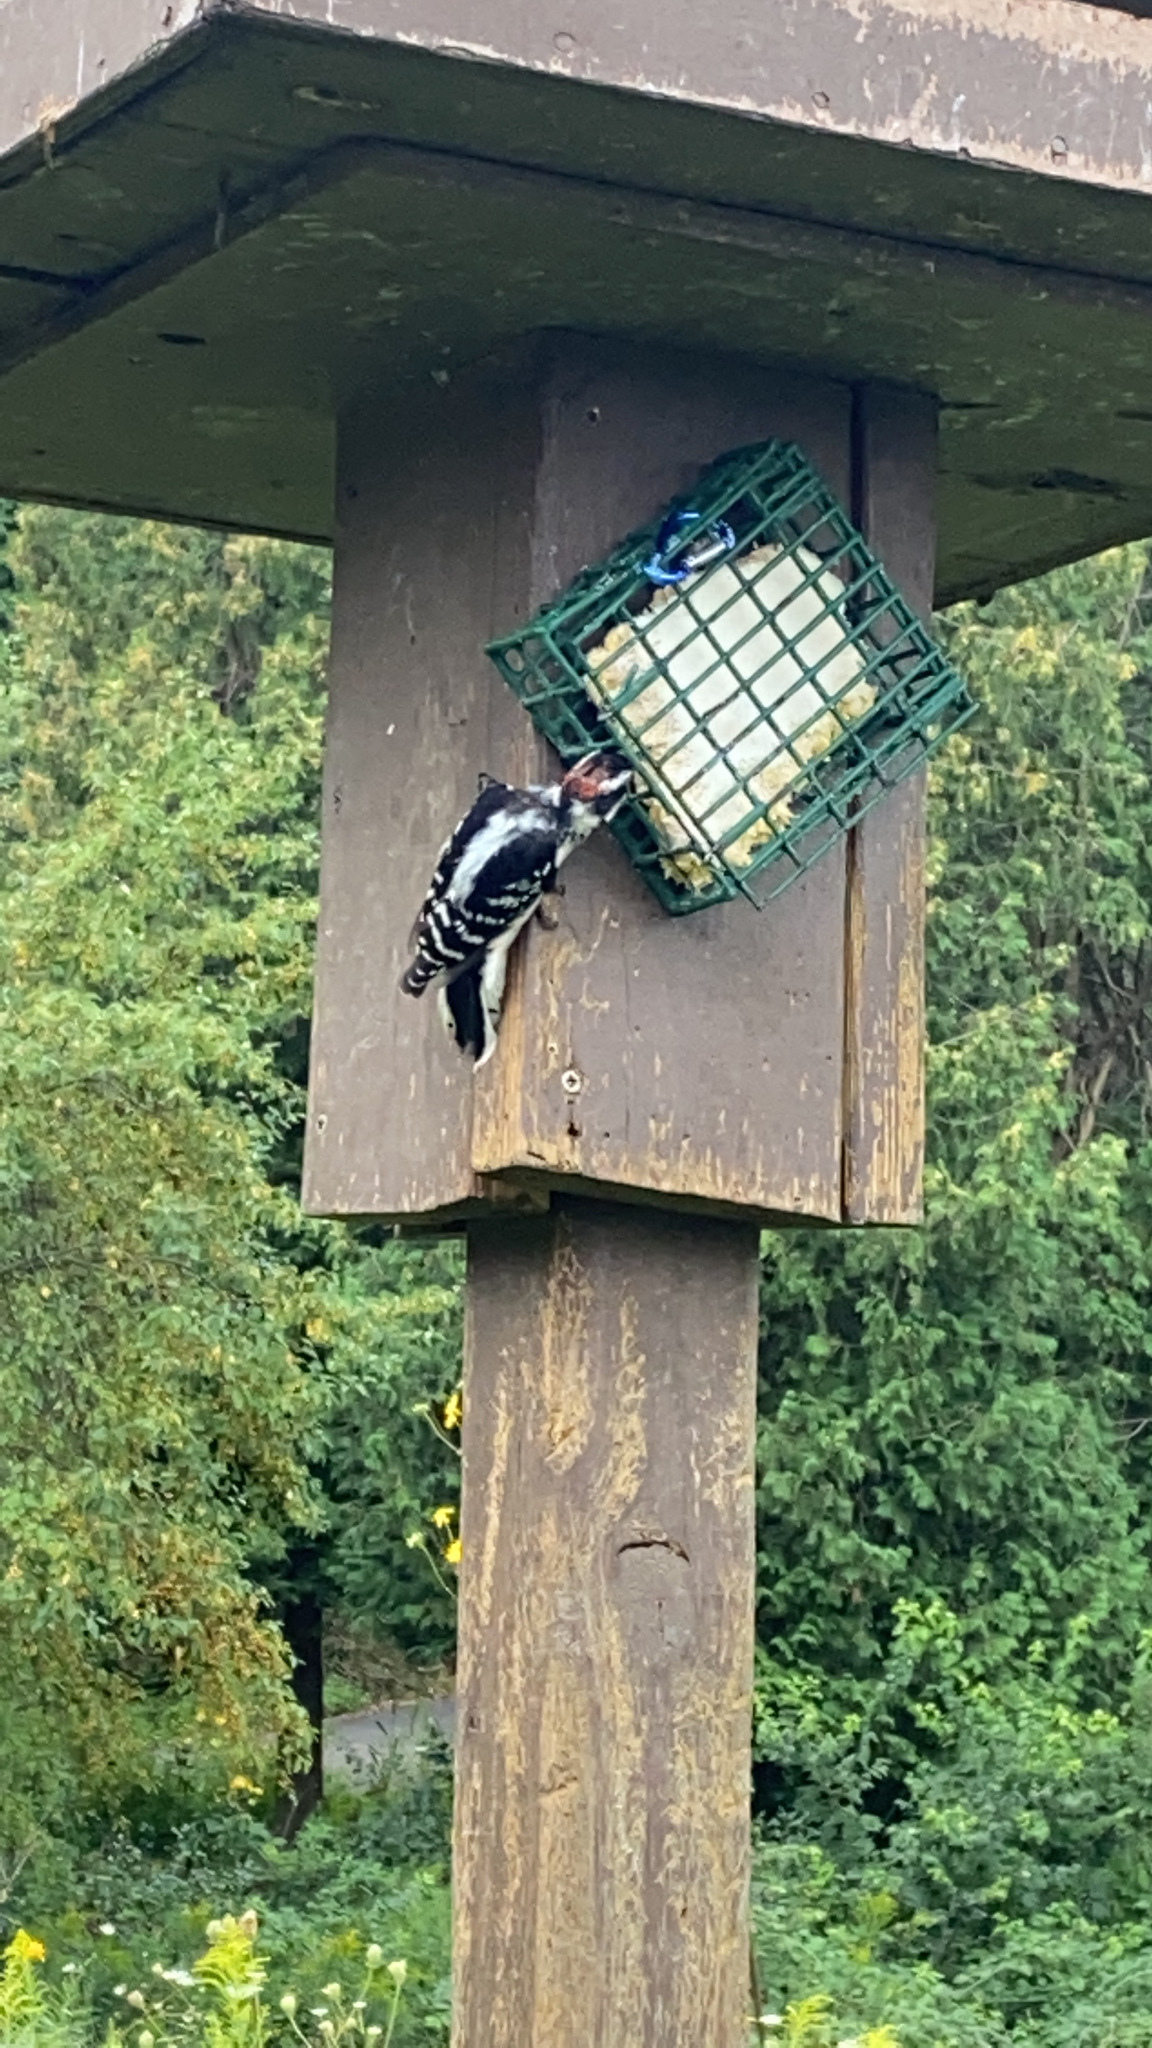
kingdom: Animalia
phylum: Chordata
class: Aves
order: Piciformes
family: Picidae
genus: Dryobates
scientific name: Dryobates pubescens
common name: Downy woodpecker
